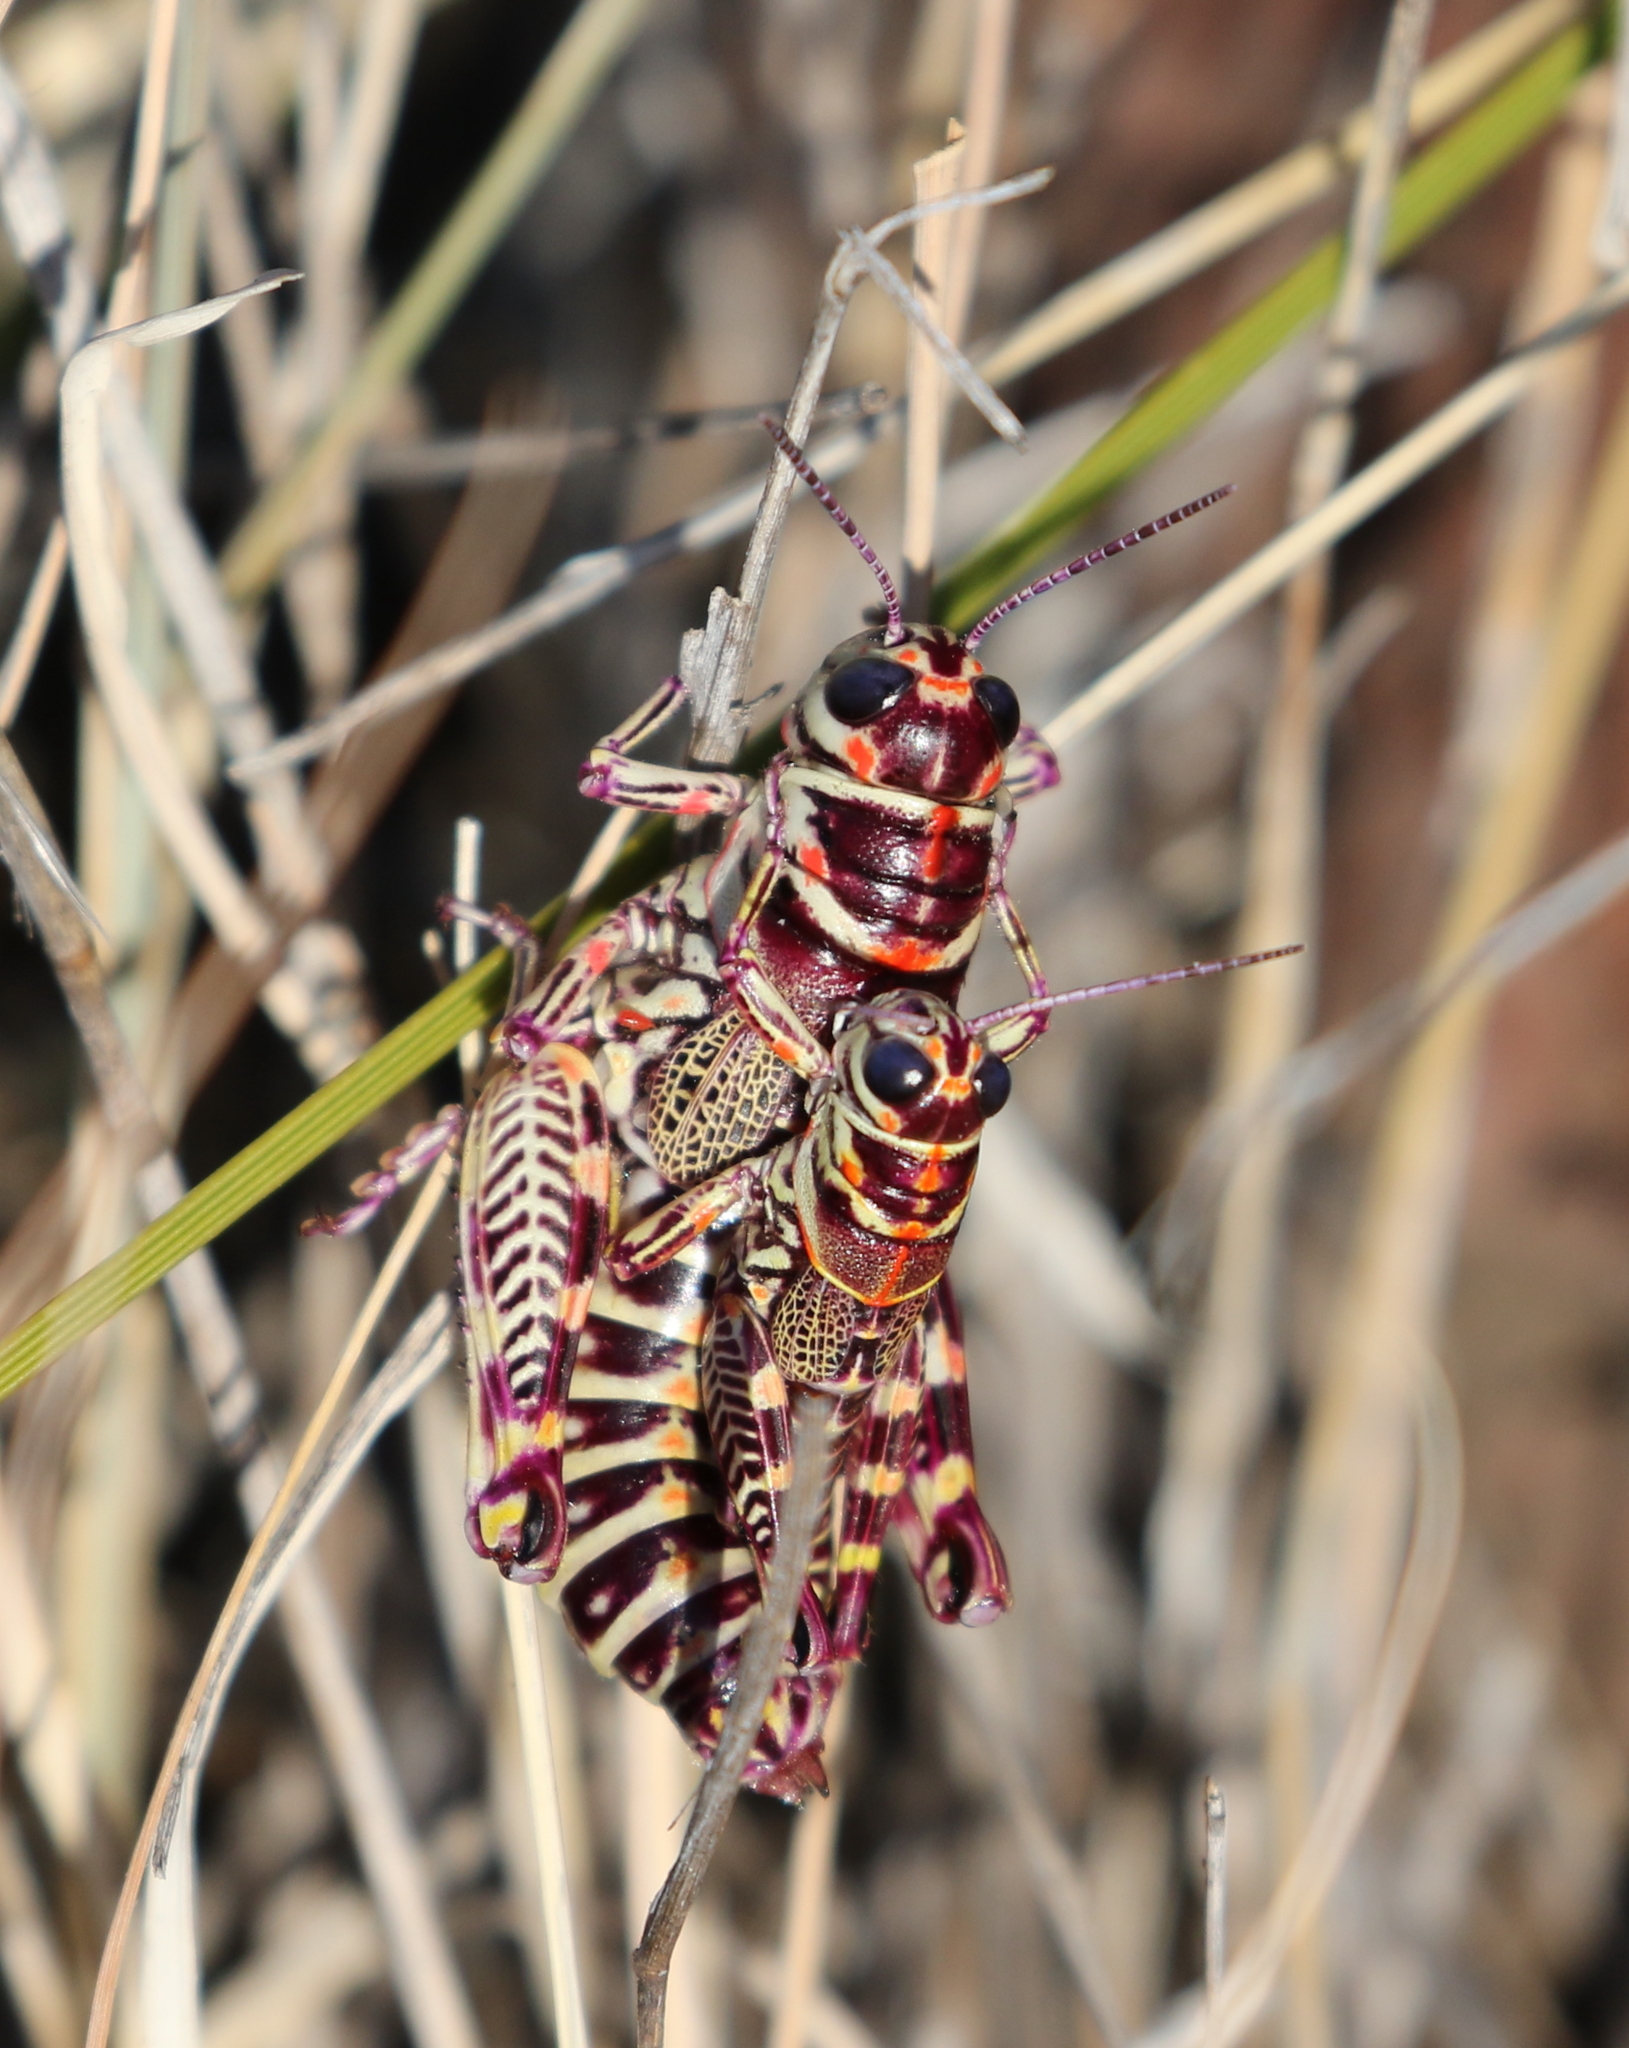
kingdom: Animalia
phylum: Arthropoda
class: Insecta
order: Orthoptera
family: Acrididae
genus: Dactylotum
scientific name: Dactylotum bicolor
